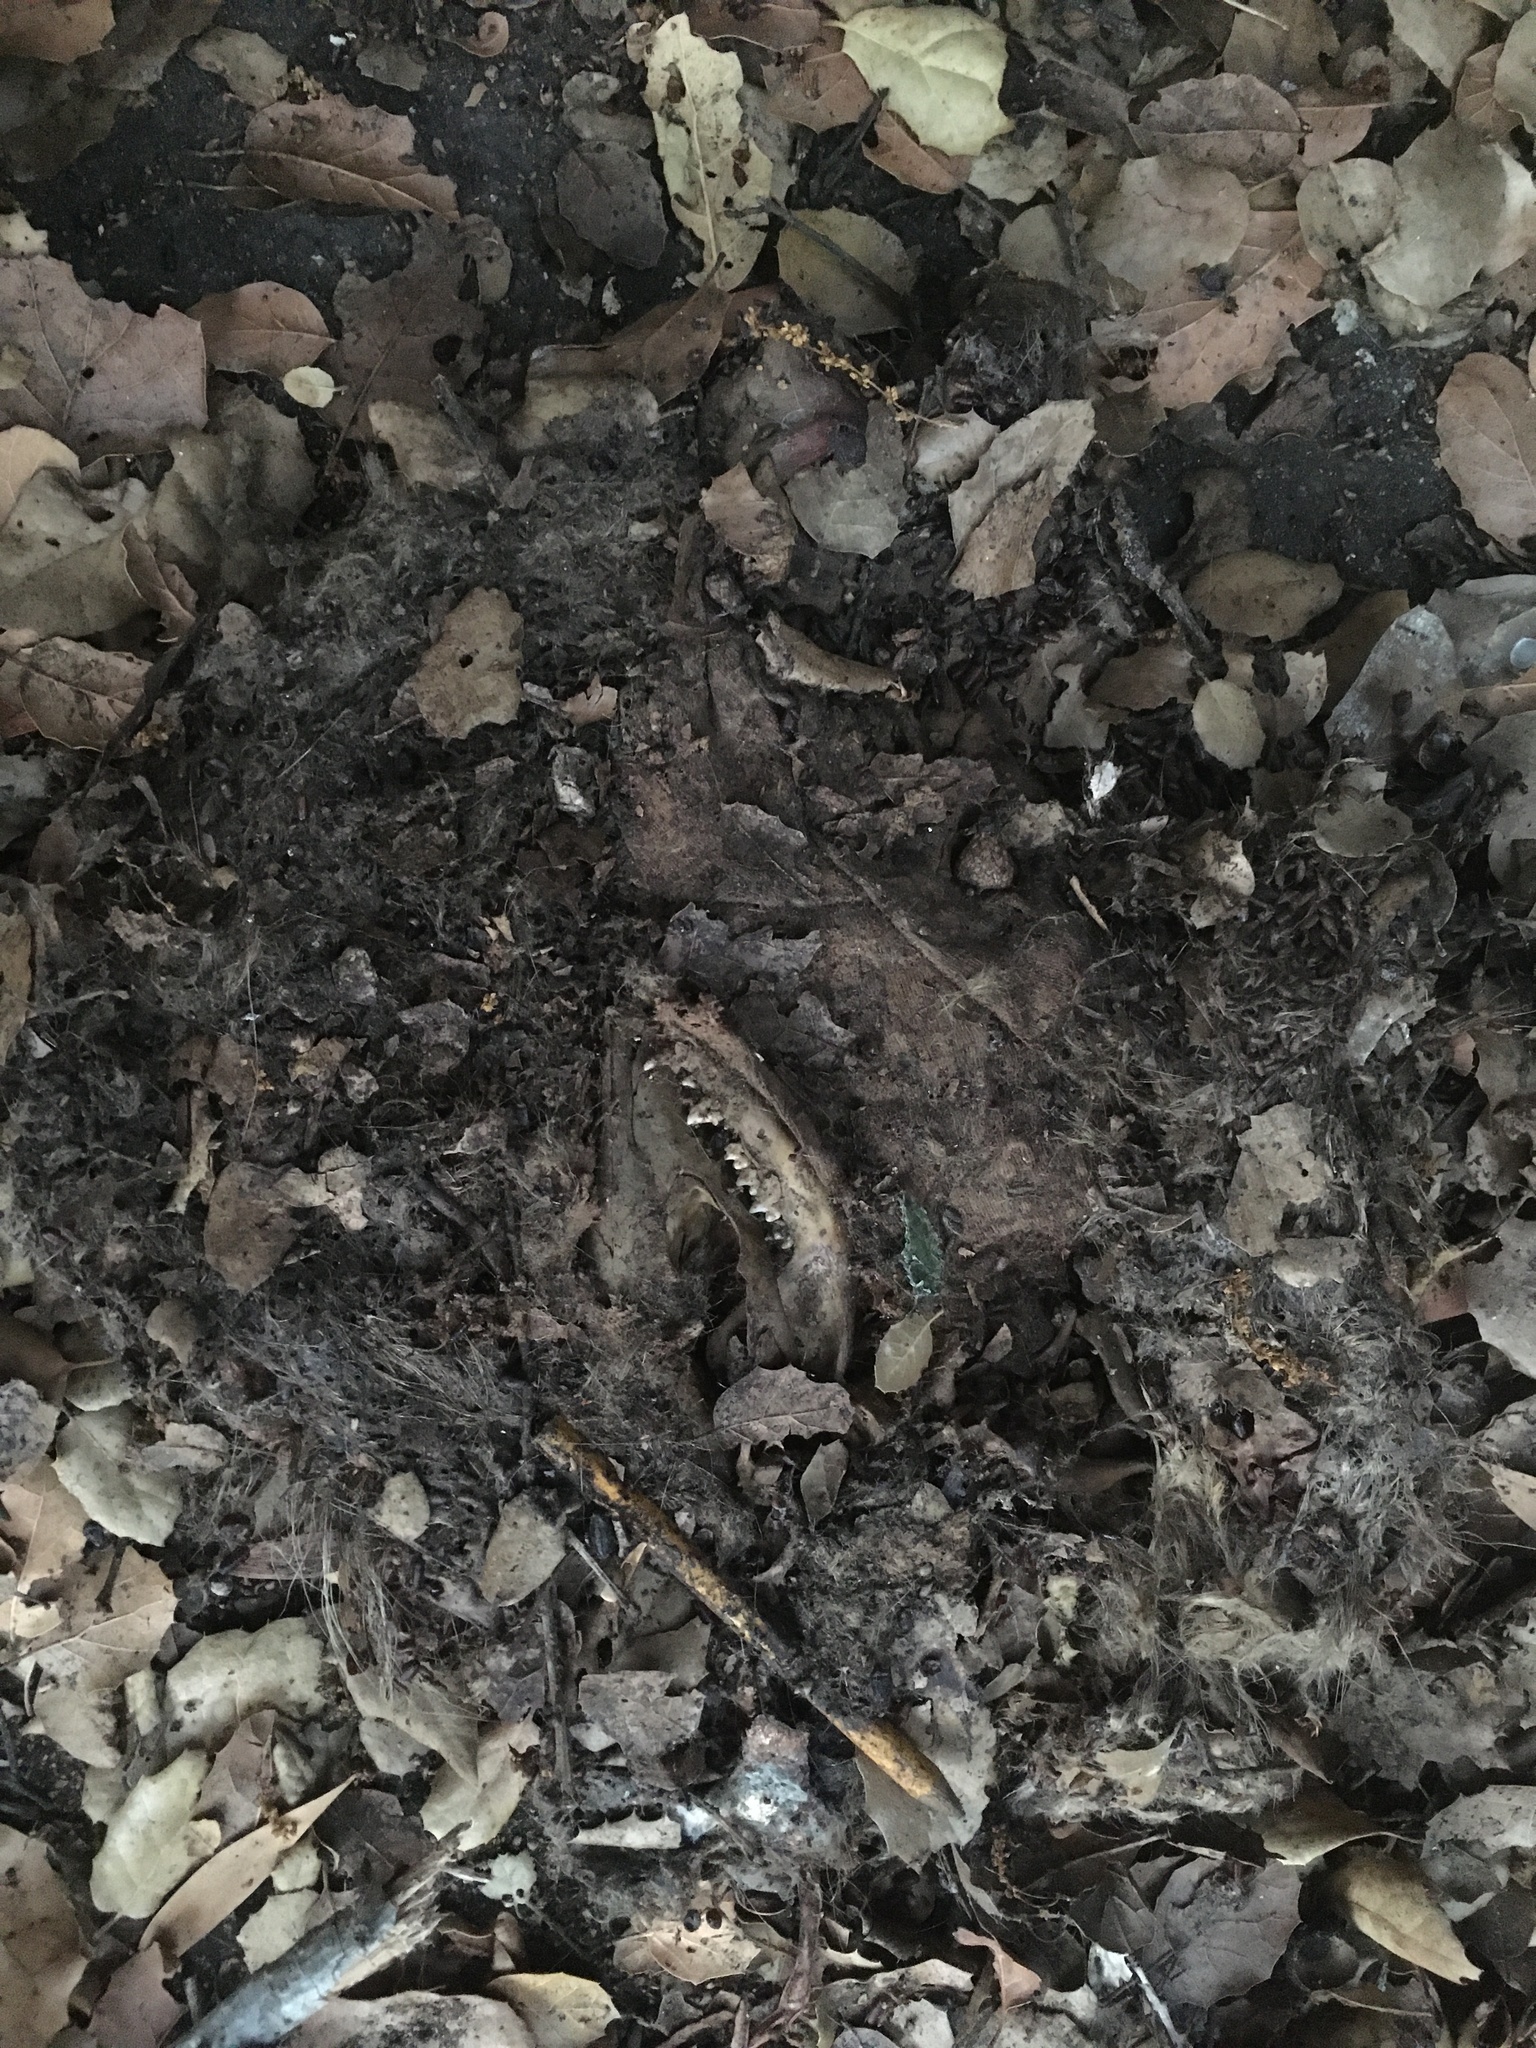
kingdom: Animalia
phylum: Chordata
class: Mammalia
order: Didelphimorphia
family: Didelphidae
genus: Didelphis
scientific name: Didelphis virginiana
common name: Virginia opossum
